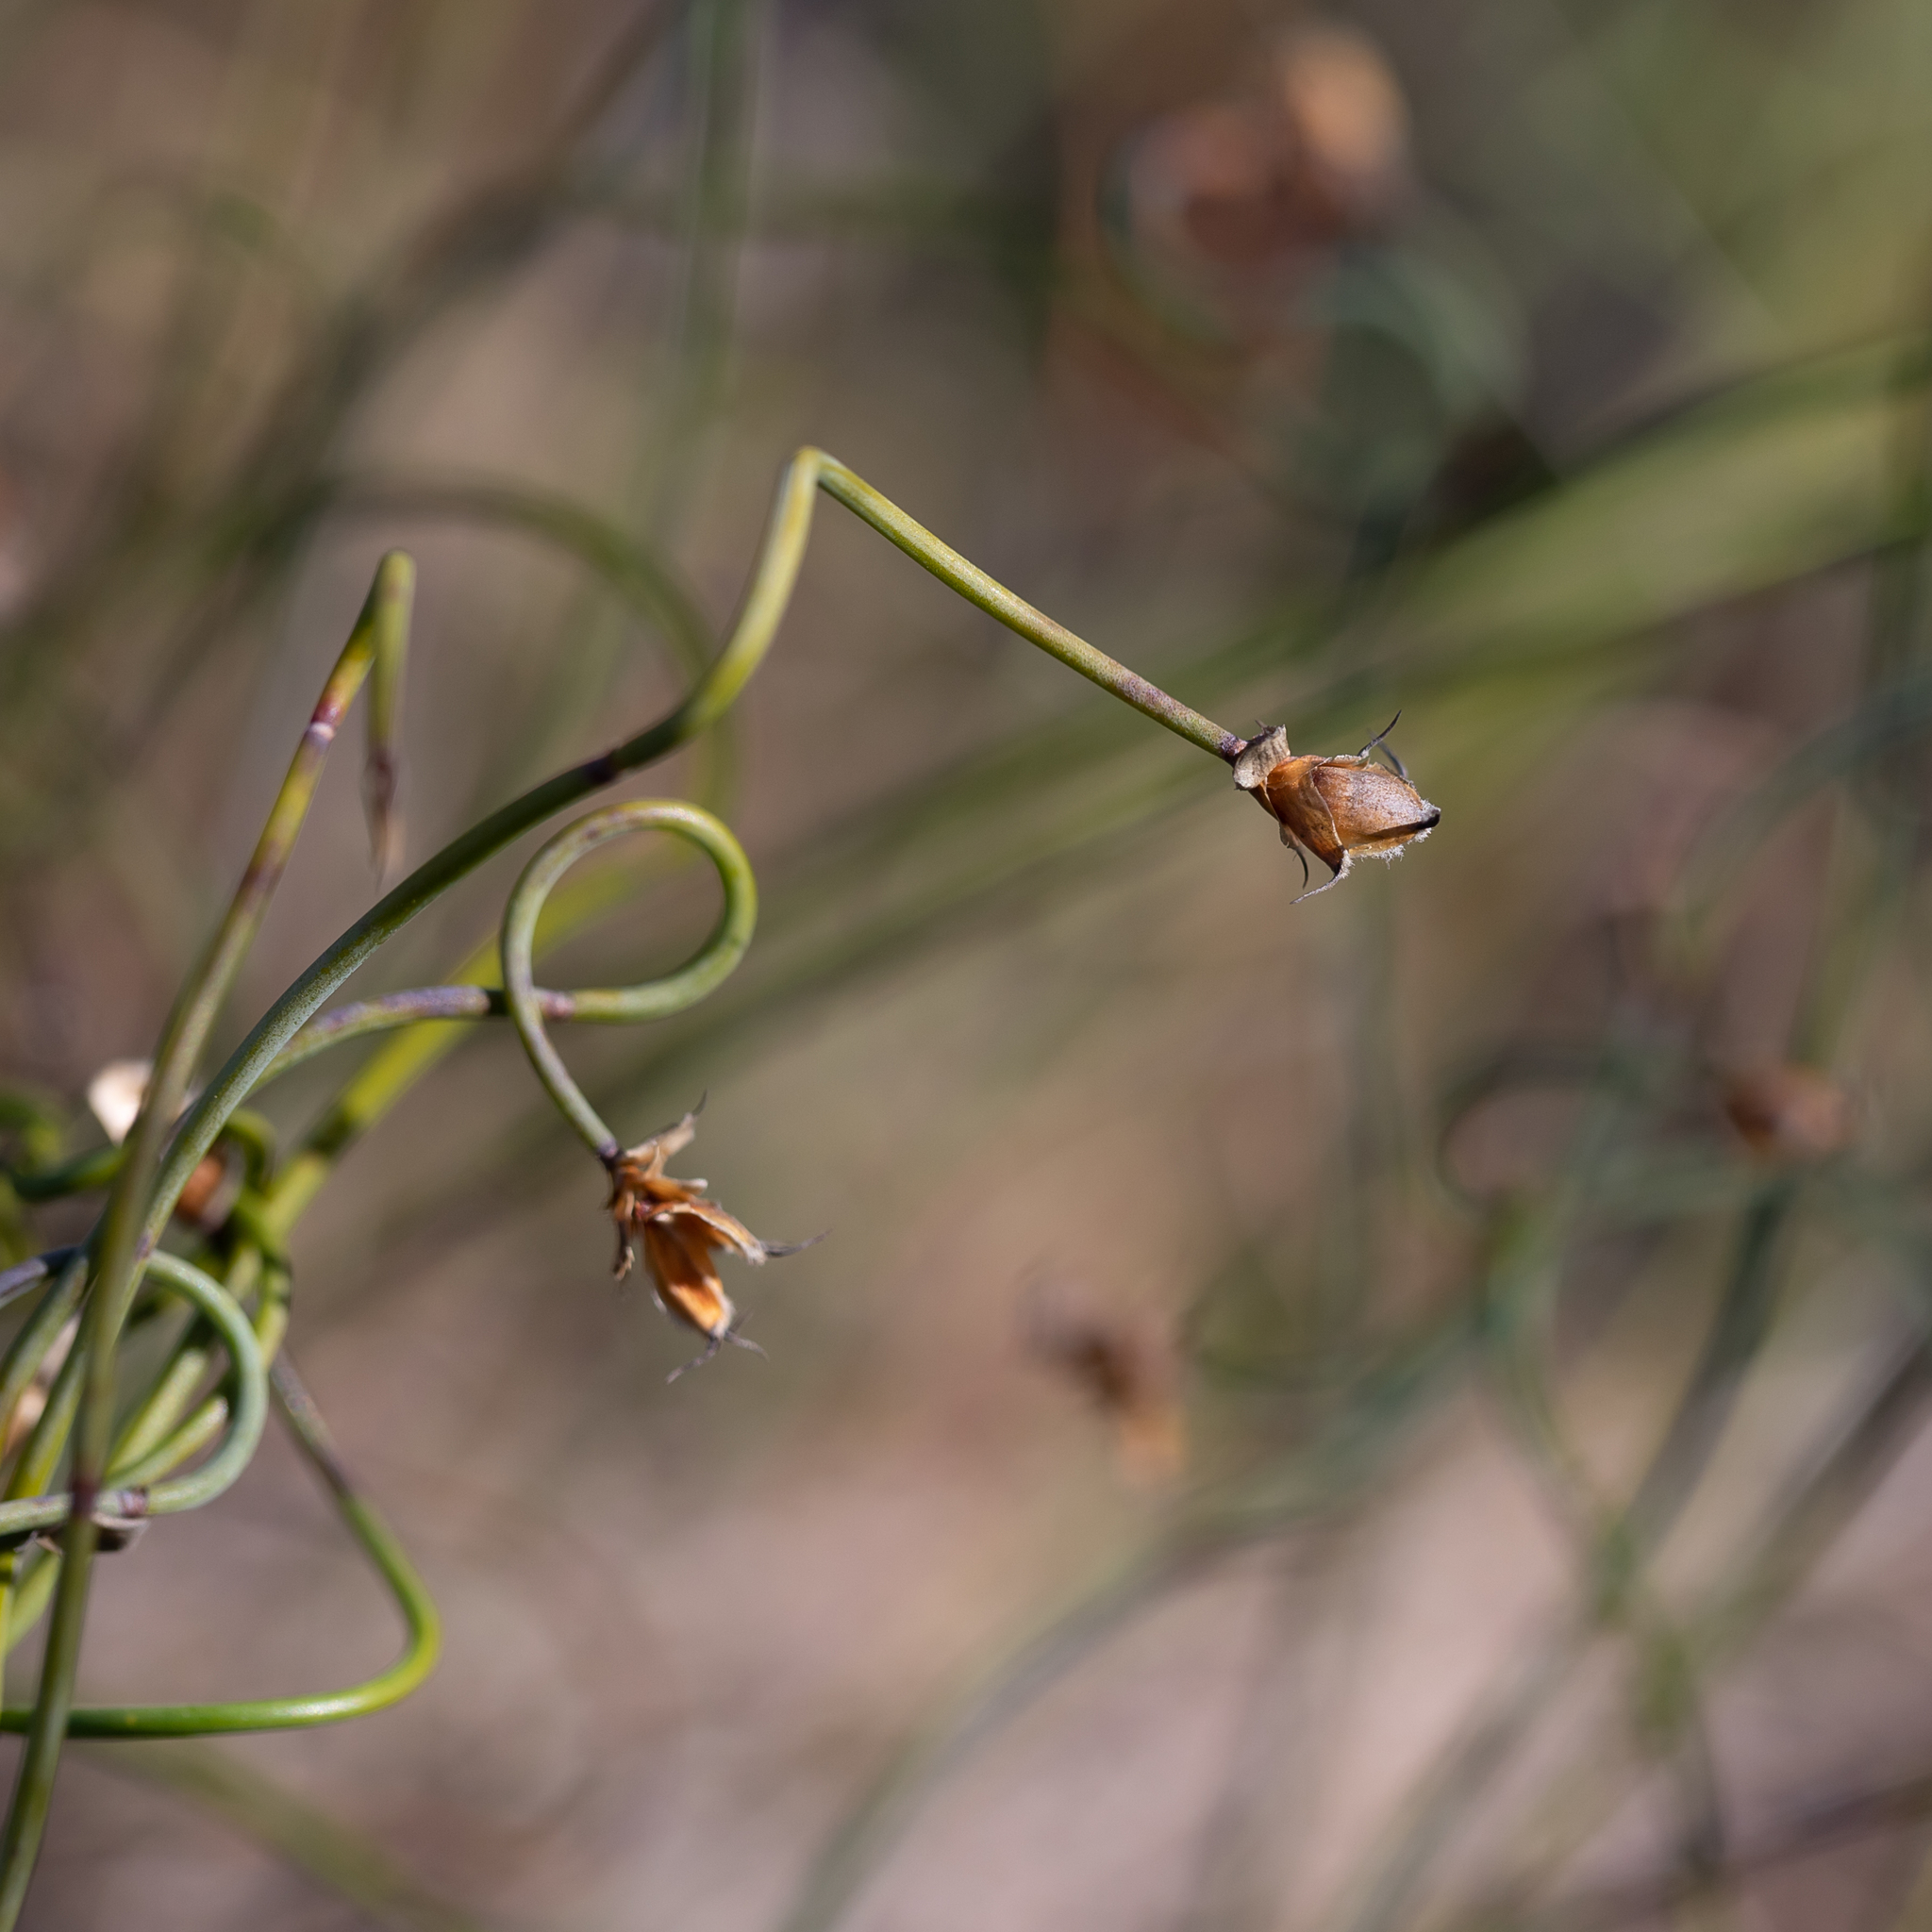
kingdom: Plantae
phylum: Tracheophyta
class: Liliopsida
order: Poales
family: Restionaceae
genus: Lepidobolus
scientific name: Lepidobolus drapetocoleus
